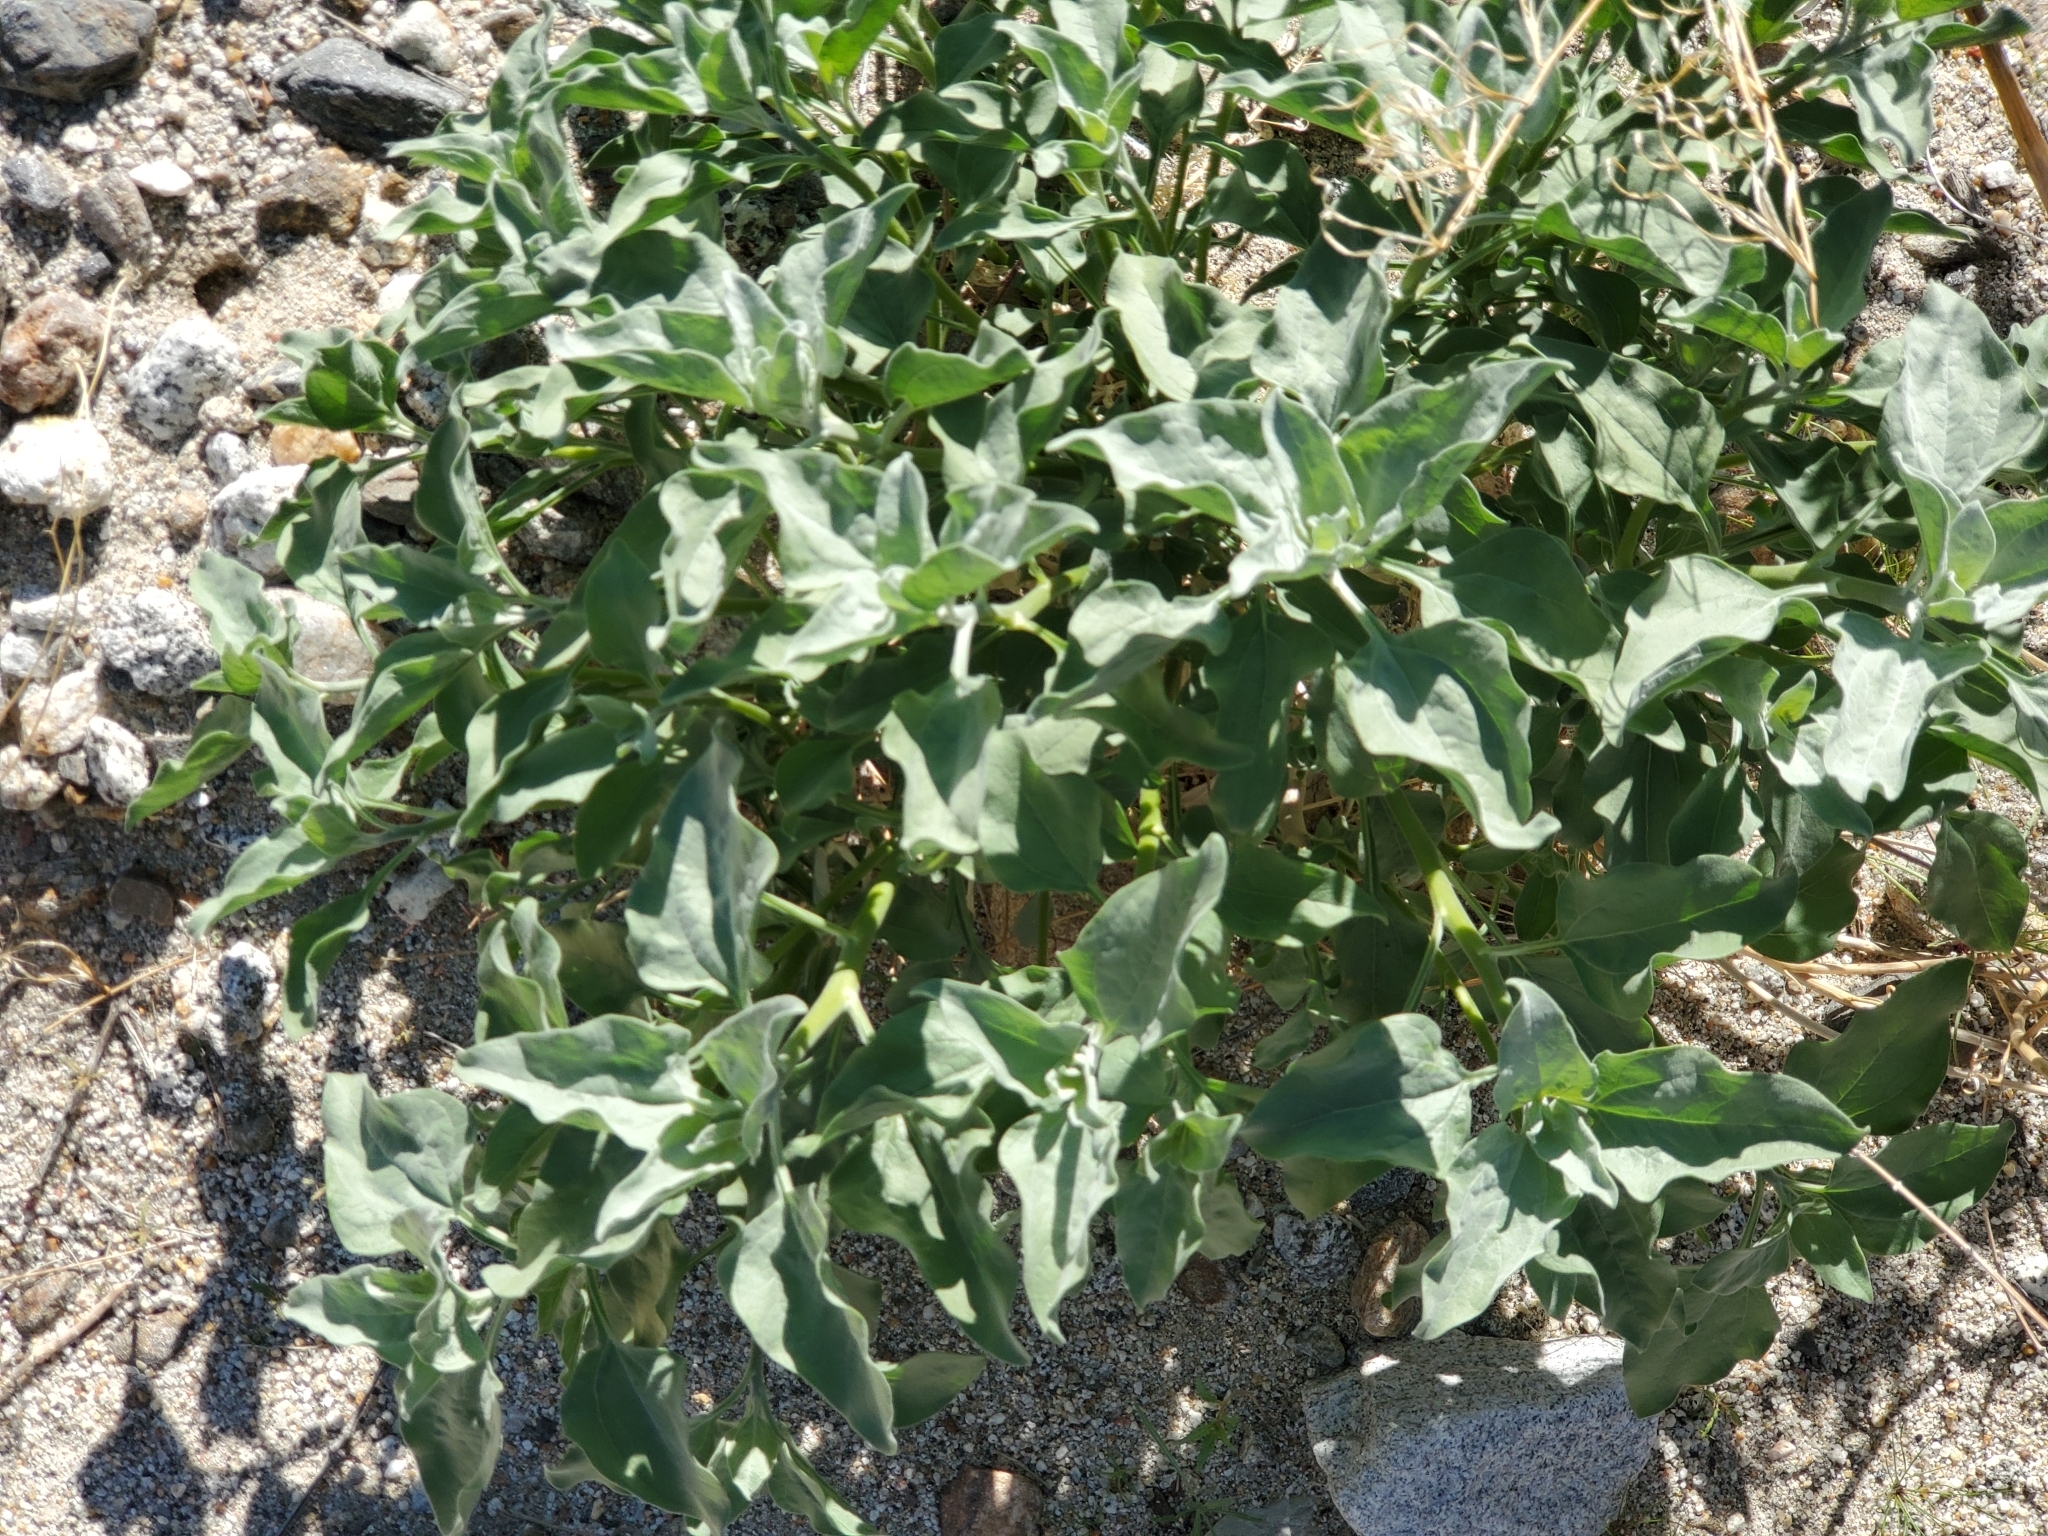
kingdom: Plantae
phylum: Tracheophyta
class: Magnoliopsida
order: Asterales
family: Asteraceae
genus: Encelia
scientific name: Encelia farinosa
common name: Brittlebush
